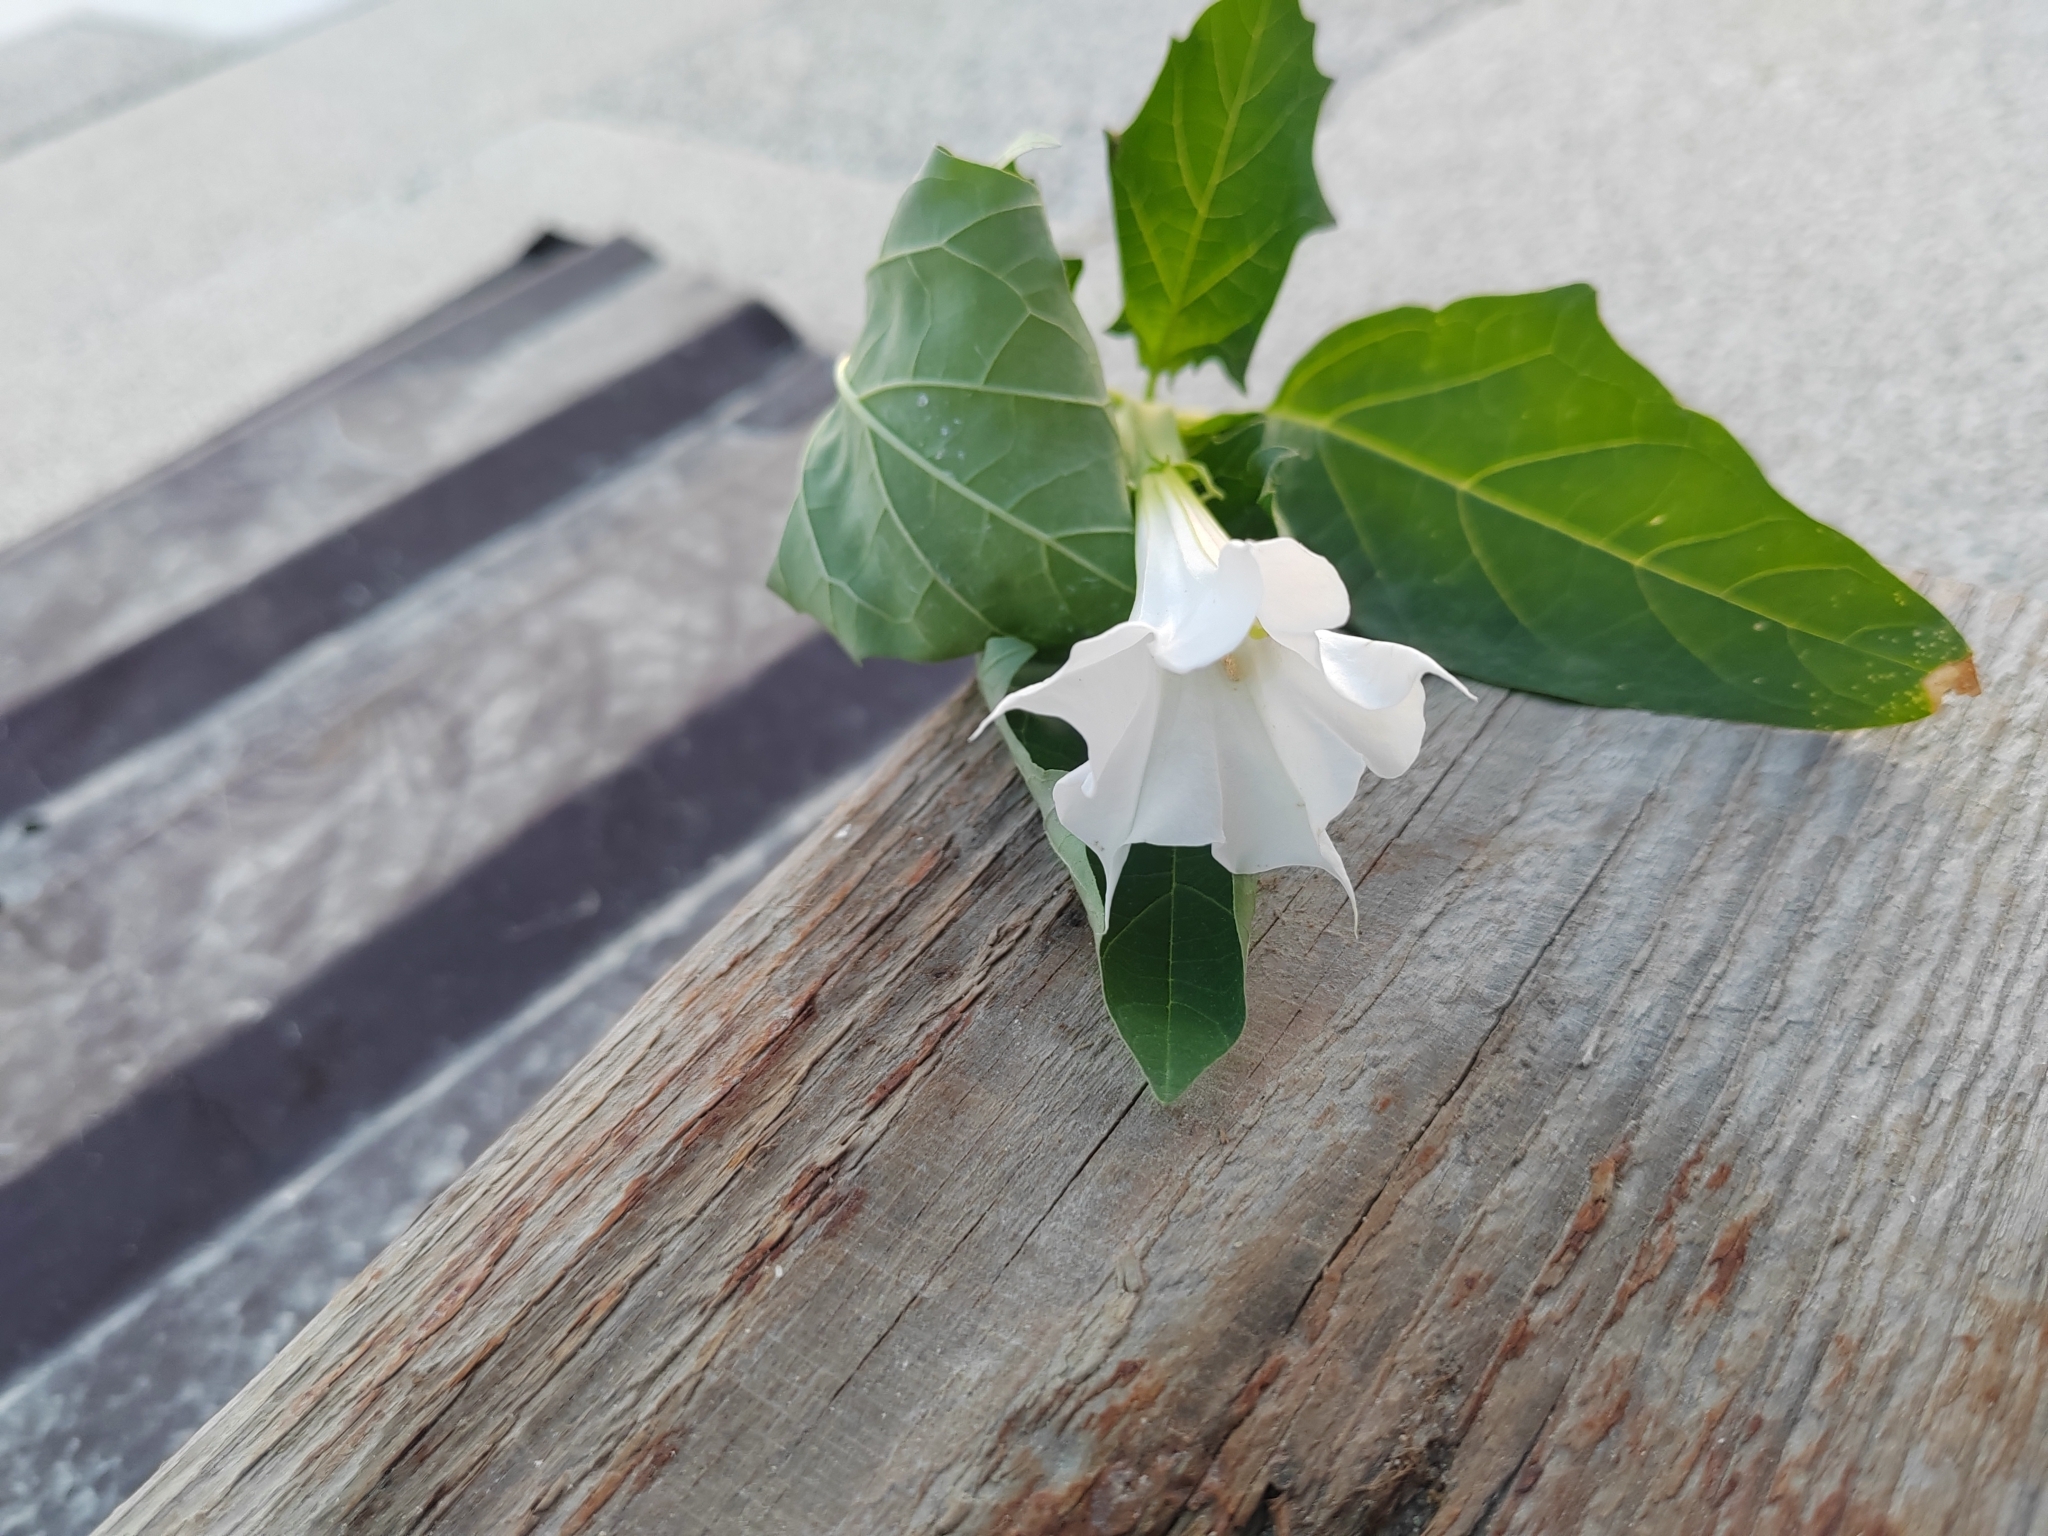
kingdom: Plantae
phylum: Tracheophyta
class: Magnoliopsida
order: Solanales
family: Solanaceae
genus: Datura
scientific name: Datura stramonium
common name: Thorn-apple
